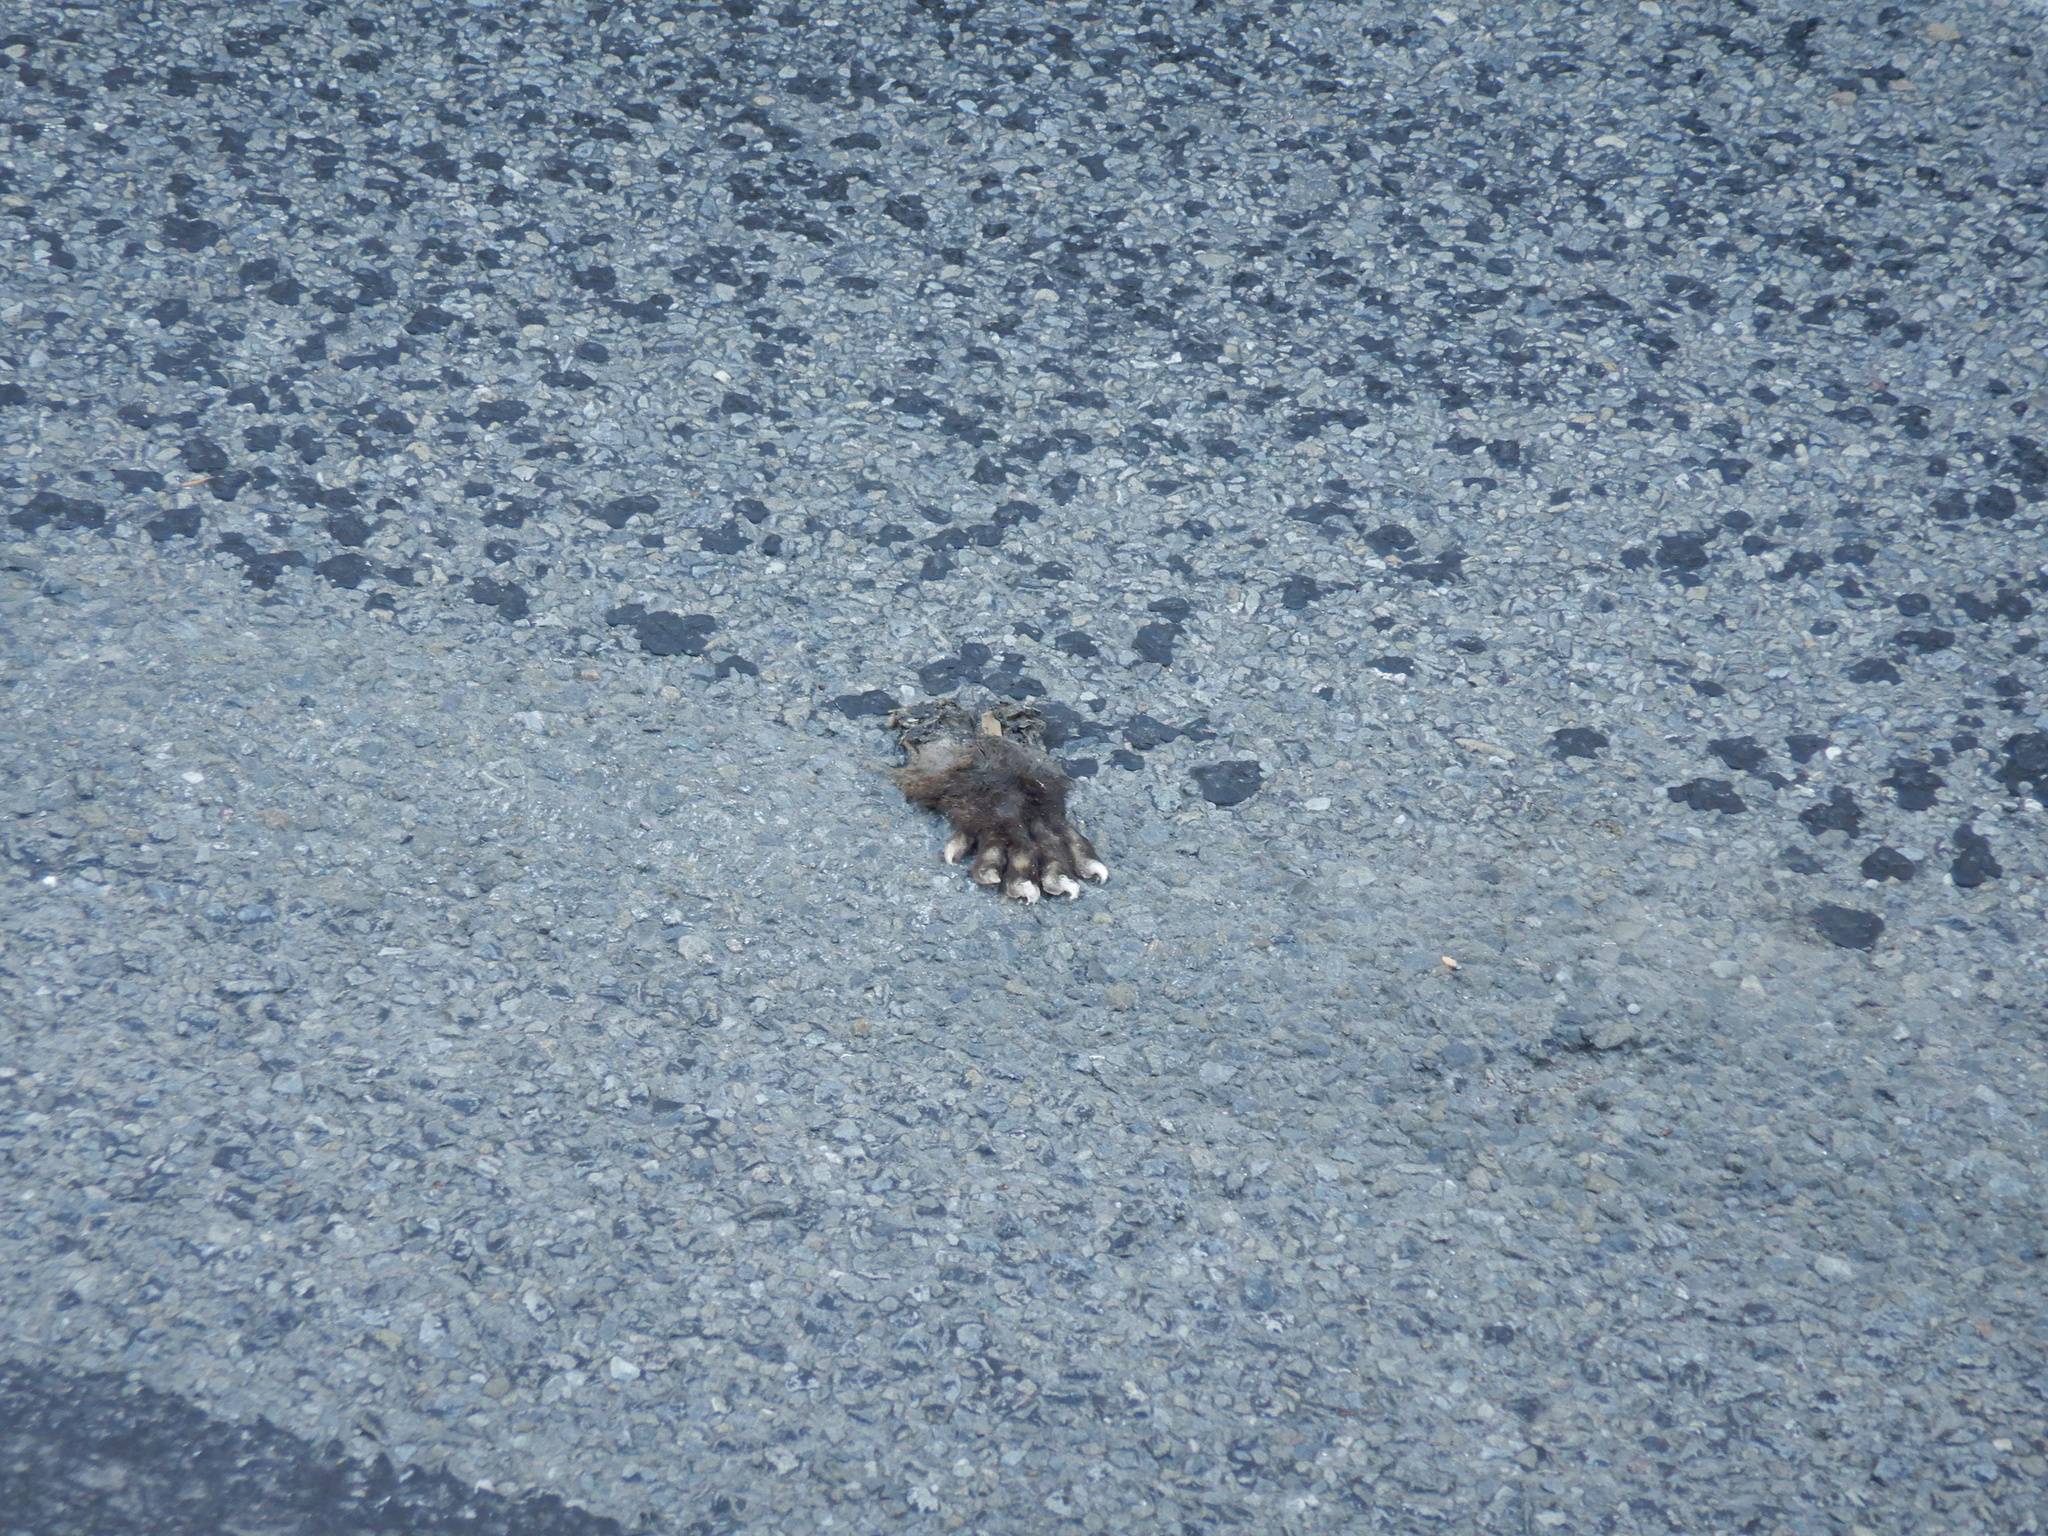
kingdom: Animalia
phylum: Chordata
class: Mammalia
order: Diprotodontia
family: Phalangeridae
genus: Trichosurus
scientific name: Trichosurus vulpecula
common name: Common brushtail
